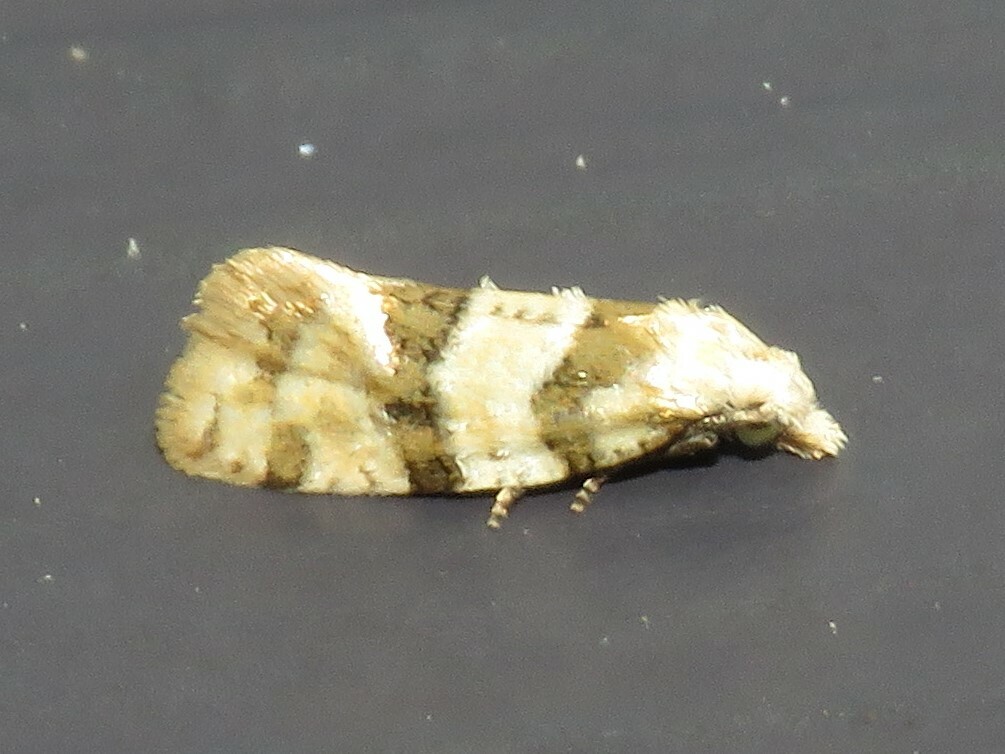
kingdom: Animalia
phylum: Arthropoda
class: Insecta
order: Lepidoptera
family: Tortricidae
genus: Aethes
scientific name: Aethes argentilimitana
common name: Silver-bordered aethes
